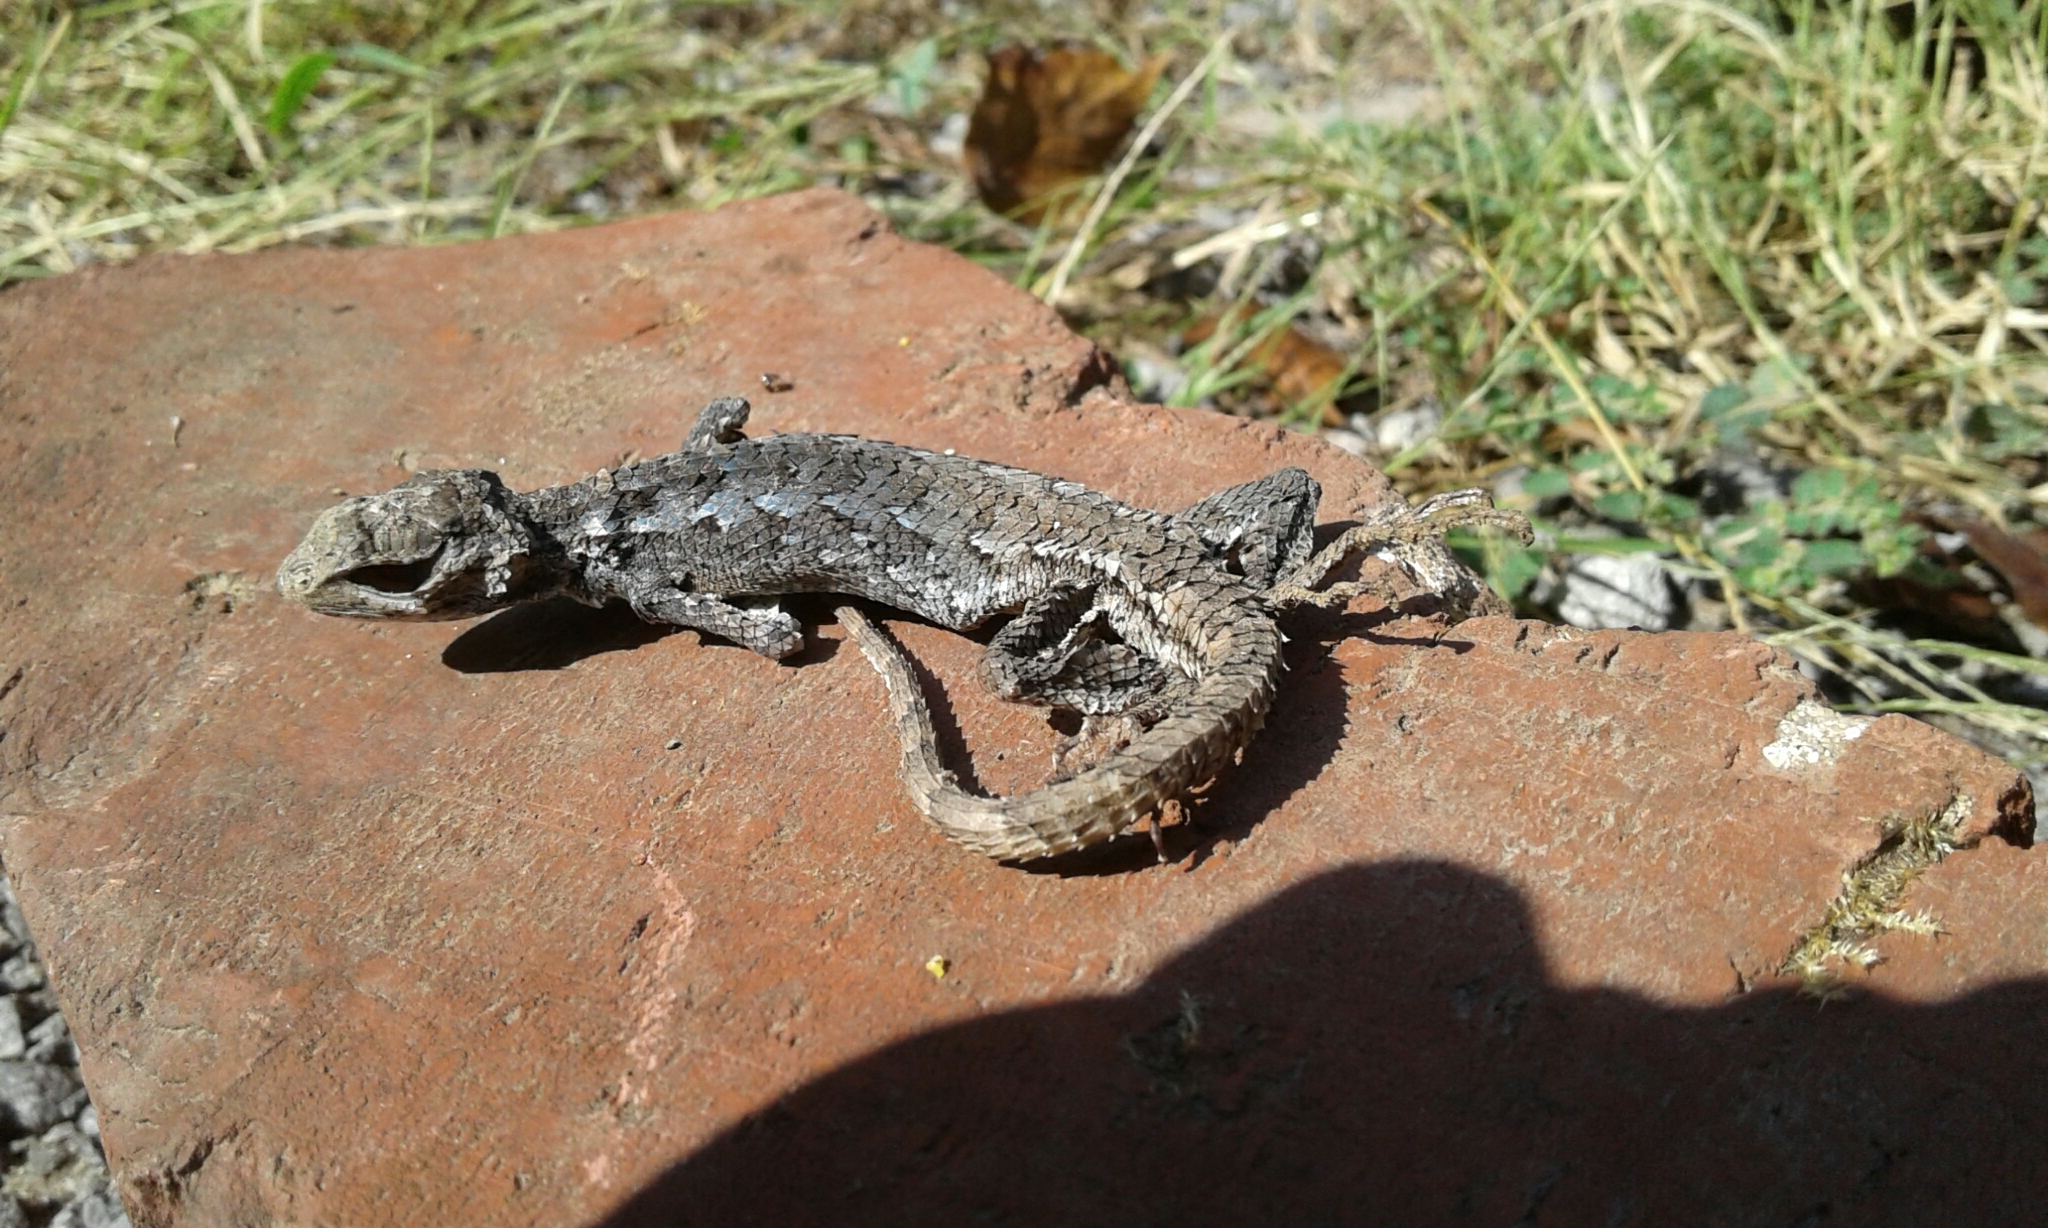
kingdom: Animalia
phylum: Chordata
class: Squamata
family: Phrynosomatidae
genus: Sceloporus
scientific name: Sceloporus undulatus
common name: Eastern fence lizard
